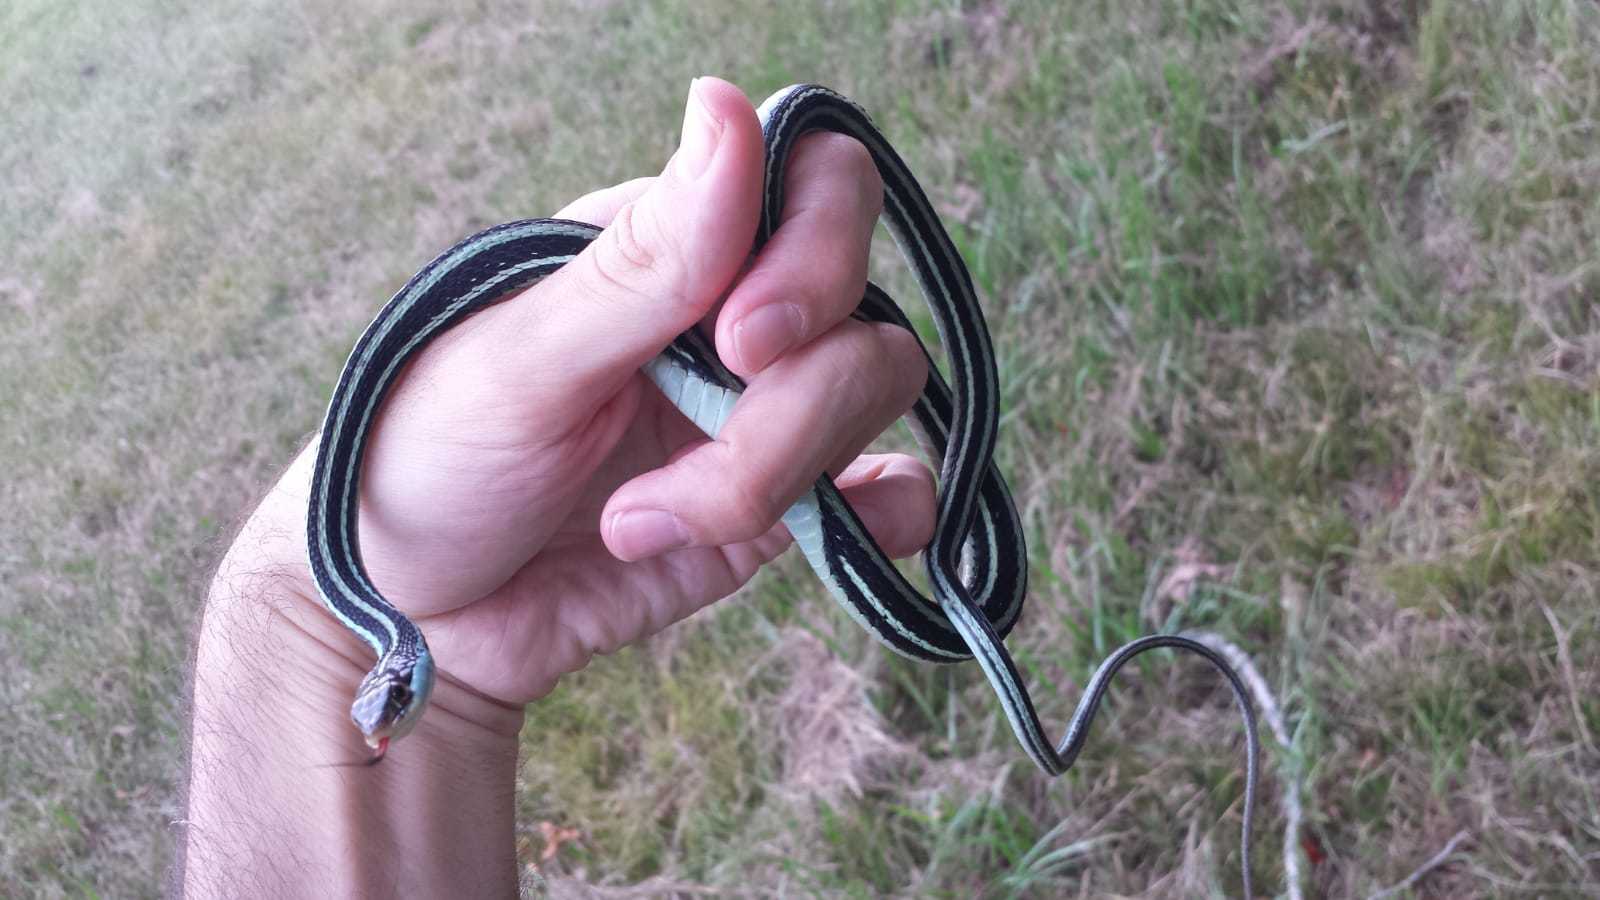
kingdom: Animalia
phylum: Chordata
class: Squamata
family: Colubridae
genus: Thamnophis
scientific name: Thamnophis proximus
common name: Western ribbon snake
